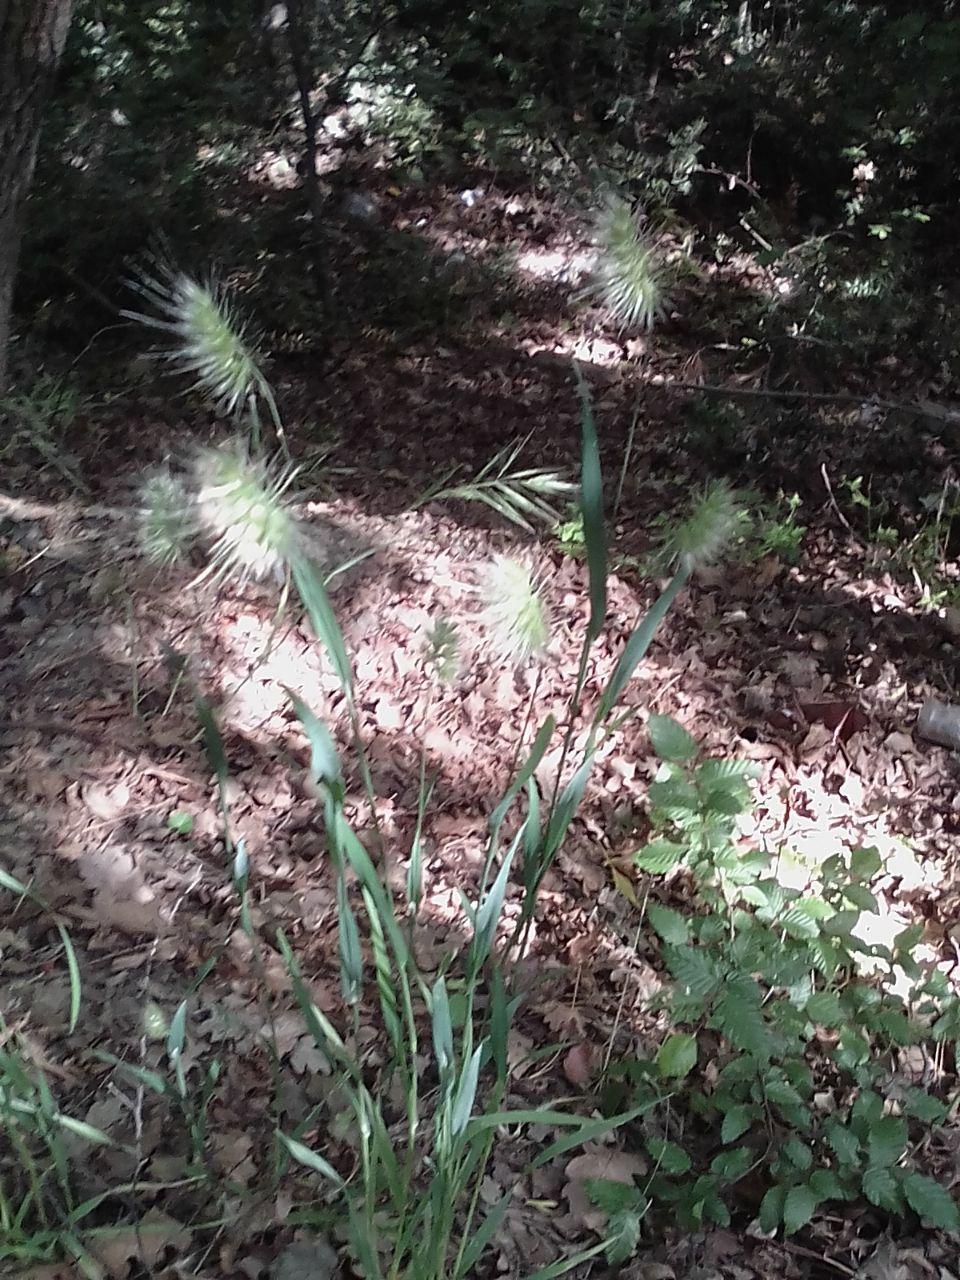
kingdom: Plantae
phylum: Tracheophyta
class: Liliopsida
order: Poales
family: Poaceae
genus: Cynosurus
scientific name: Cynosurus echinatus
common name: Rough dog's-tail
